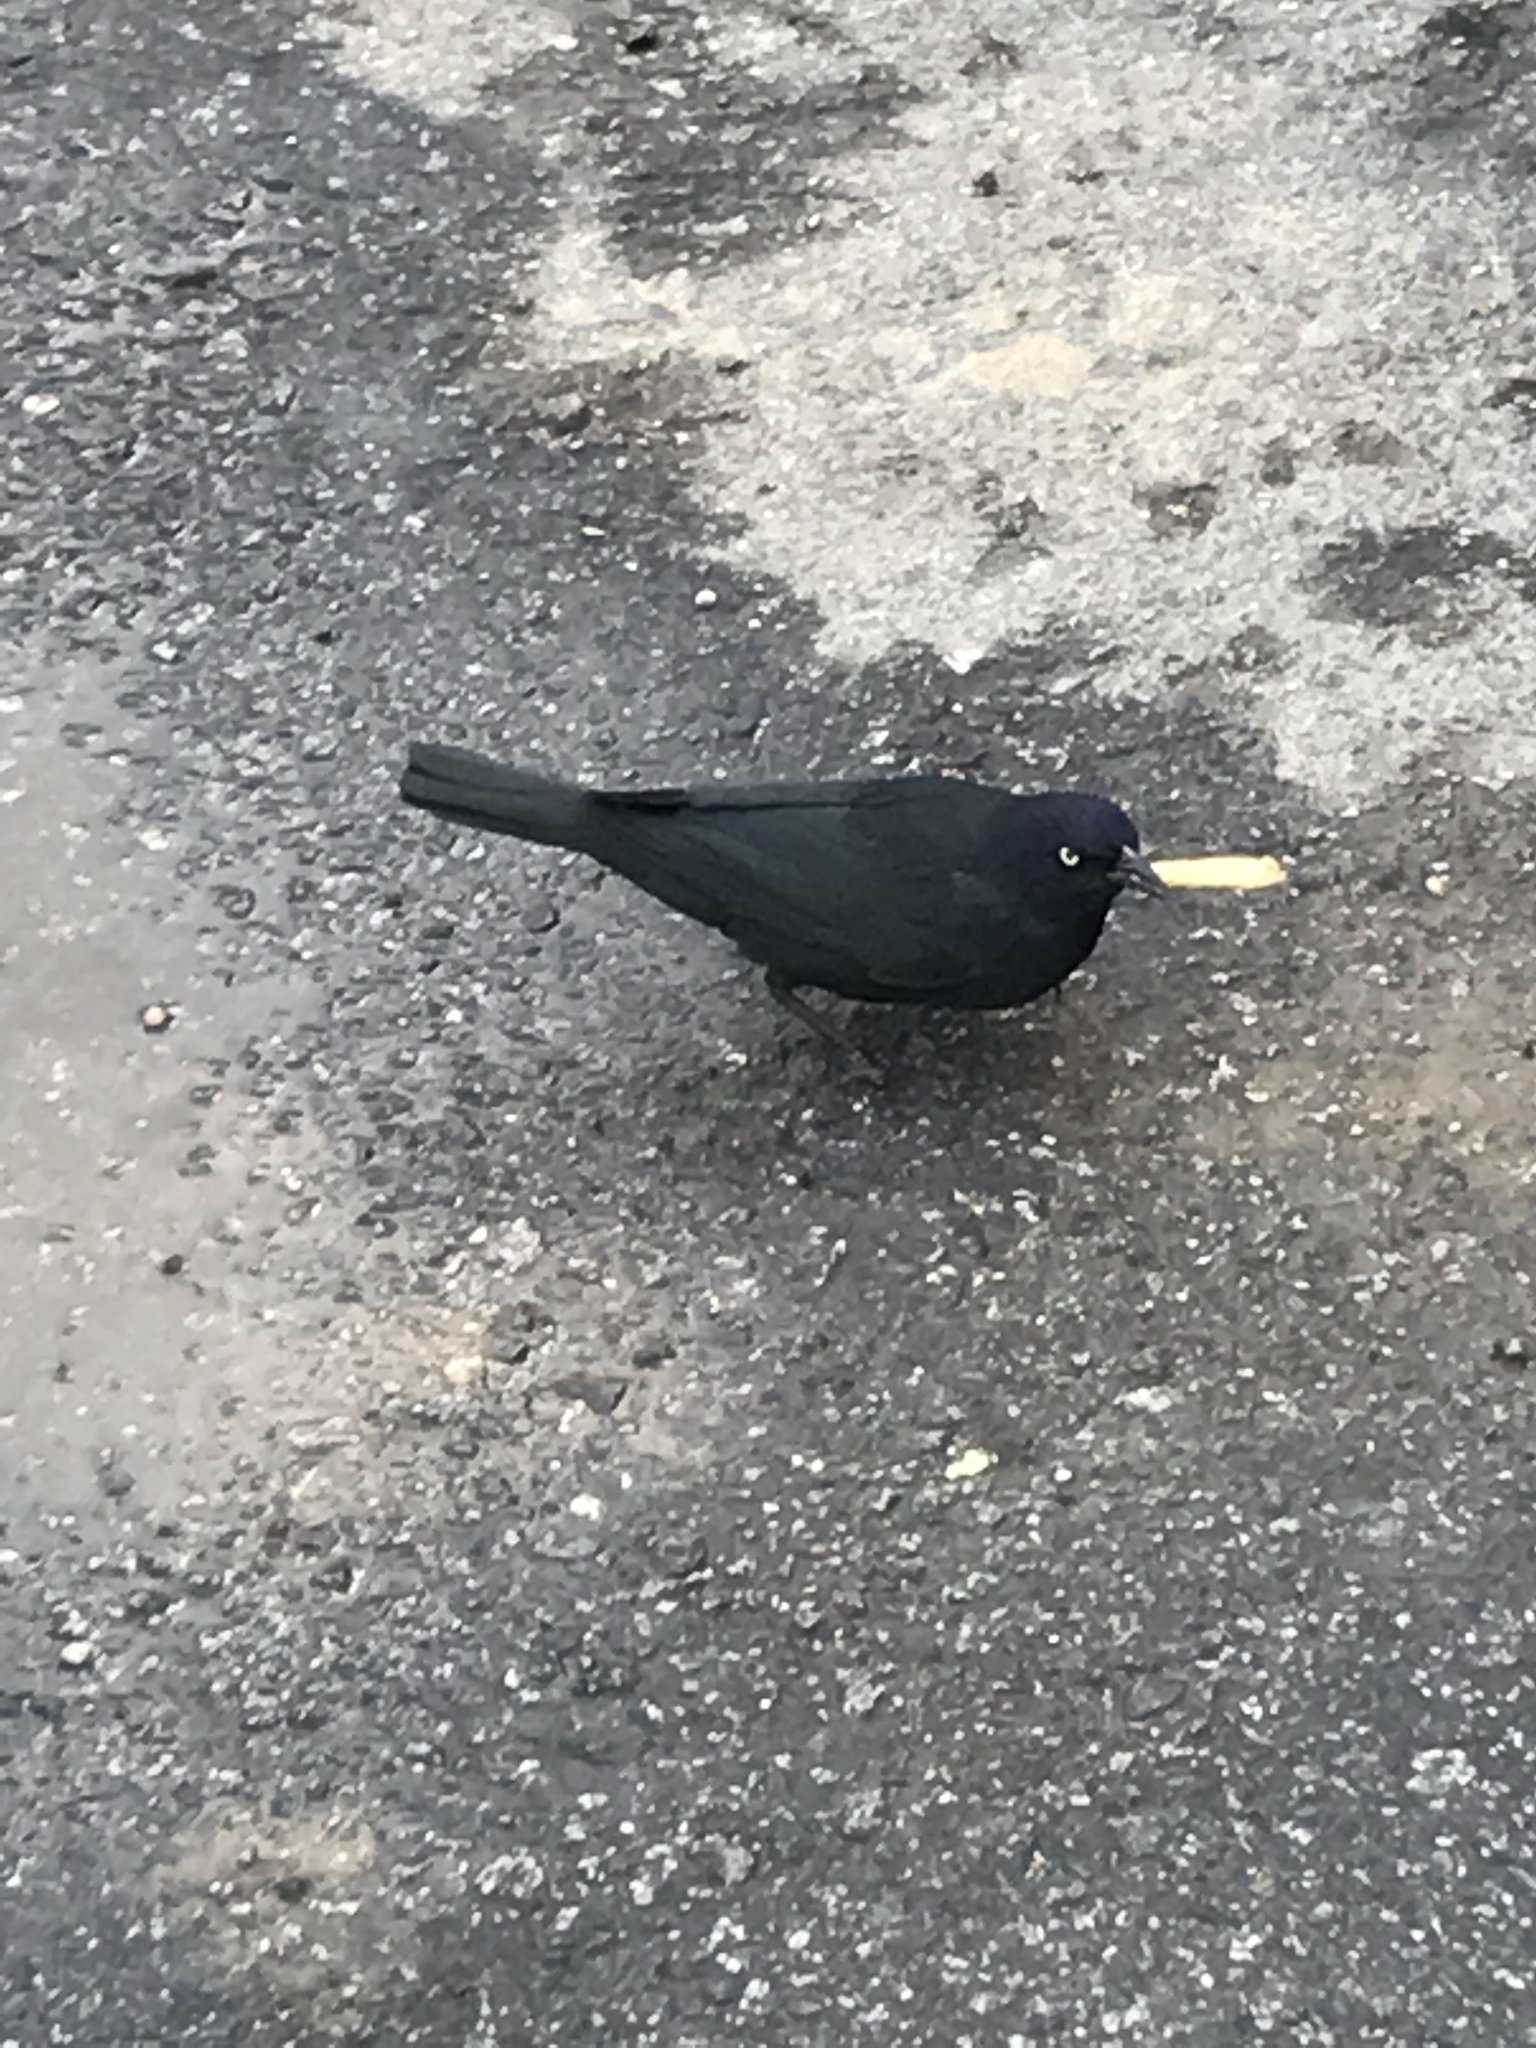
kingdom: Animalia
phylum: Chordata
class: Aves
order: Passeriformes
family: Icteridae
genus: Euphagus
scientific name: Euphagus cyanocephalus
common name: Brewer's blackbird
